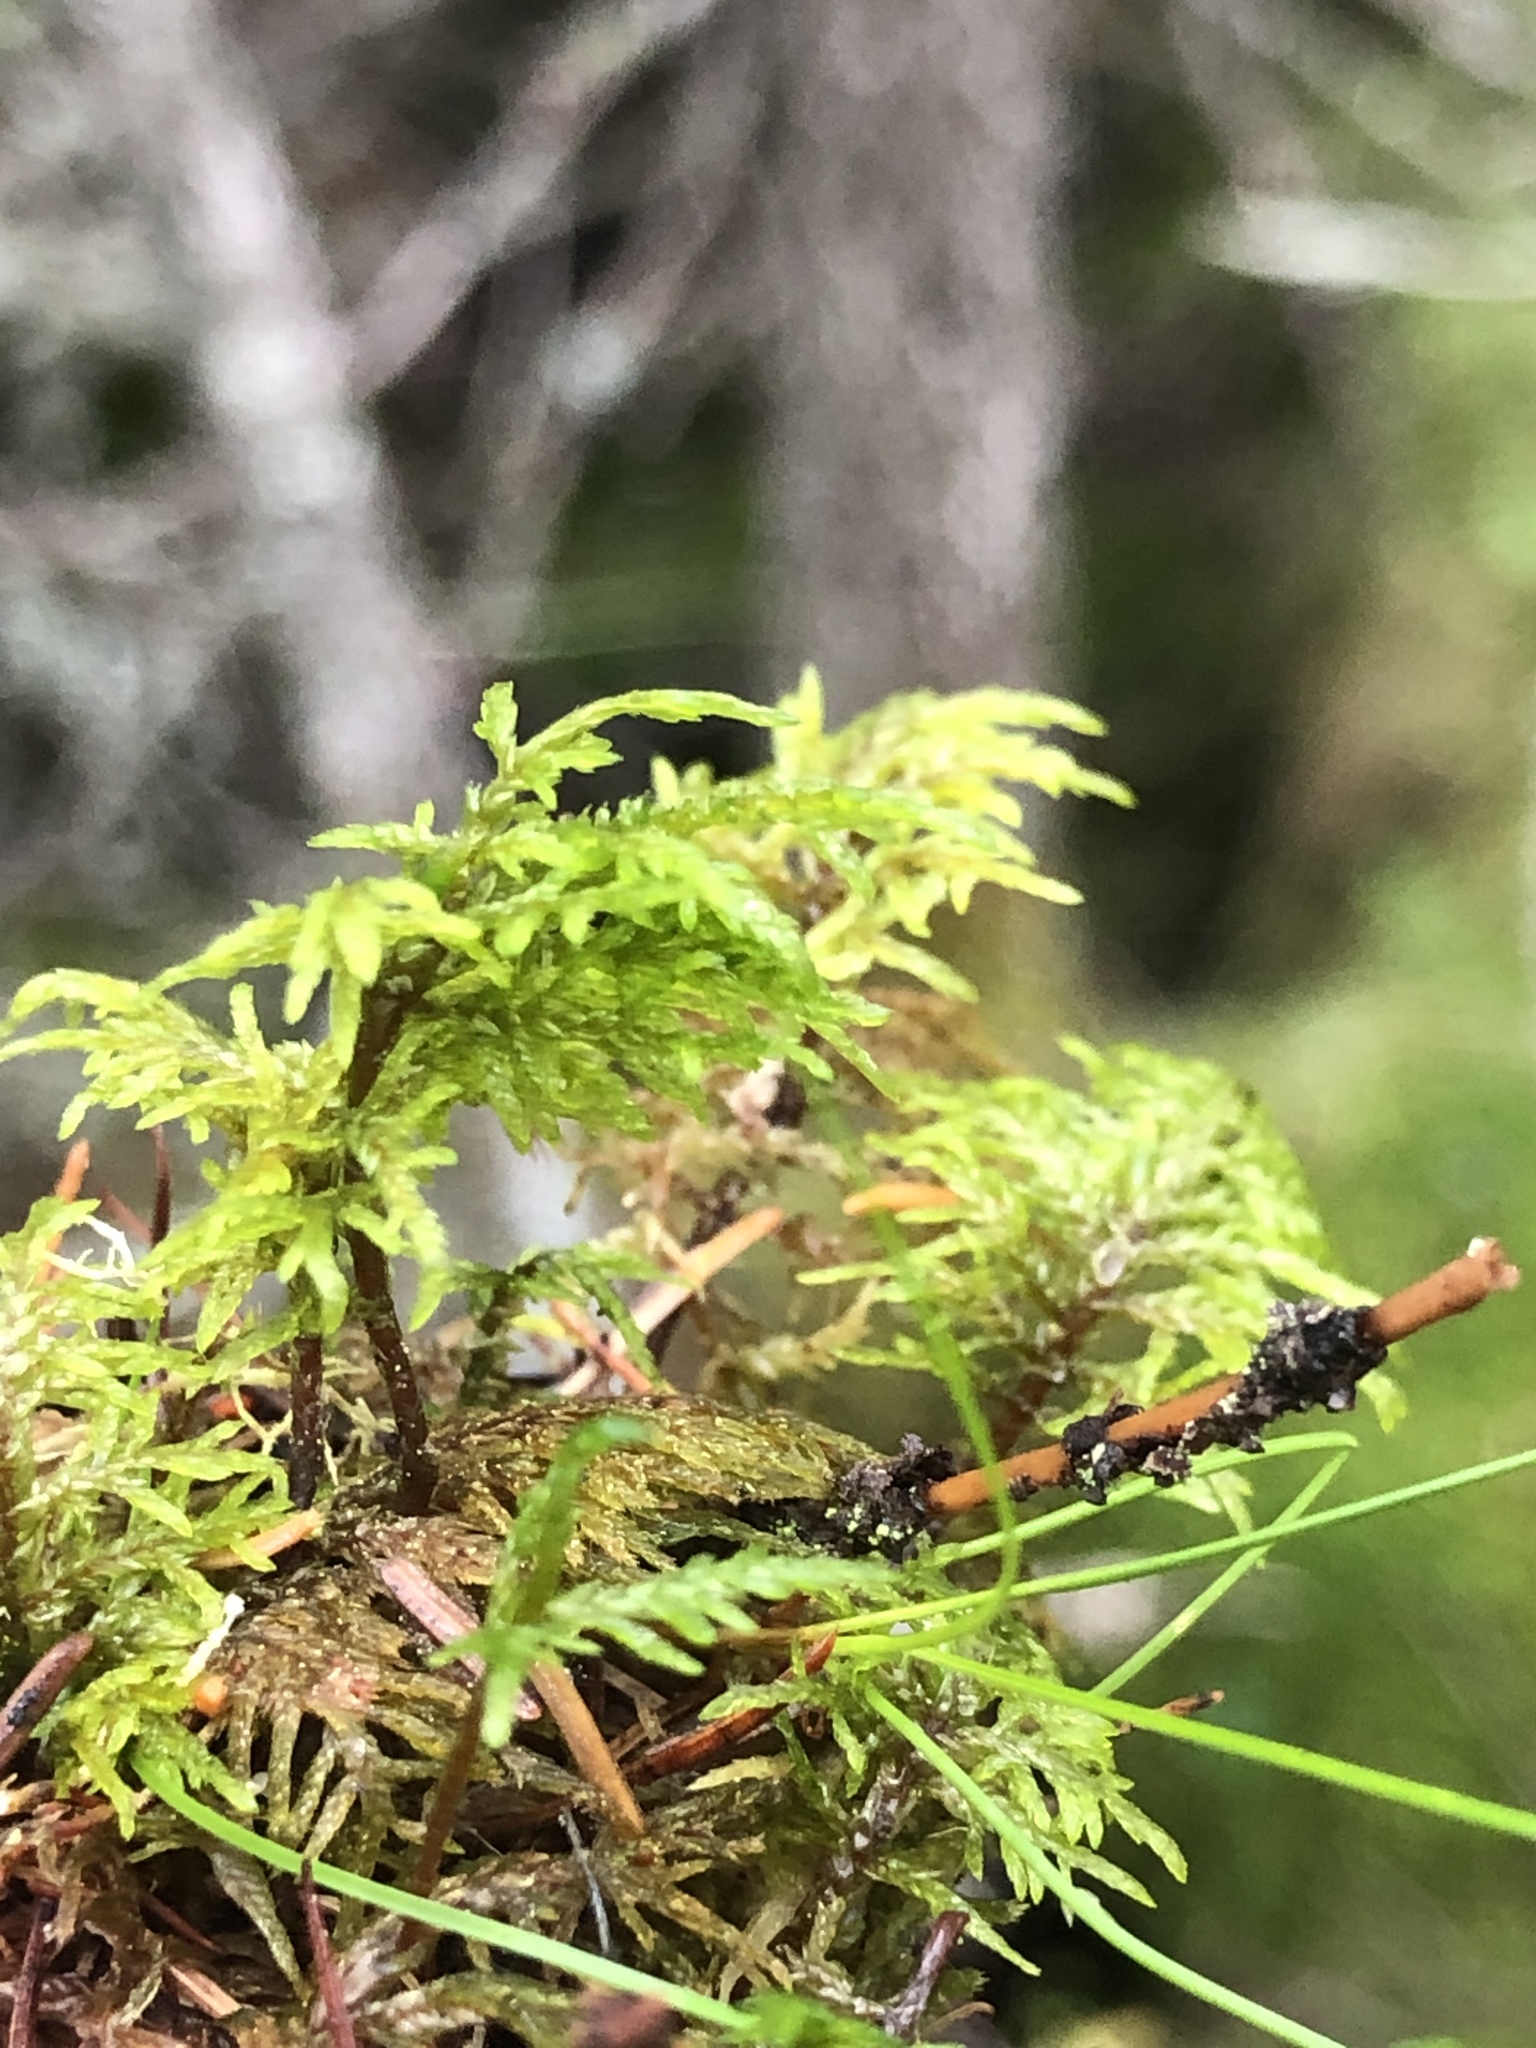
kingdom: Plantae
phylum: Bryophyta
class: Bryopsida
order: Hypnales
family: Hylocomiaceae
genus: Hylocomium
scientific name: Hylocomium splendens
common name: Stairstep moss
